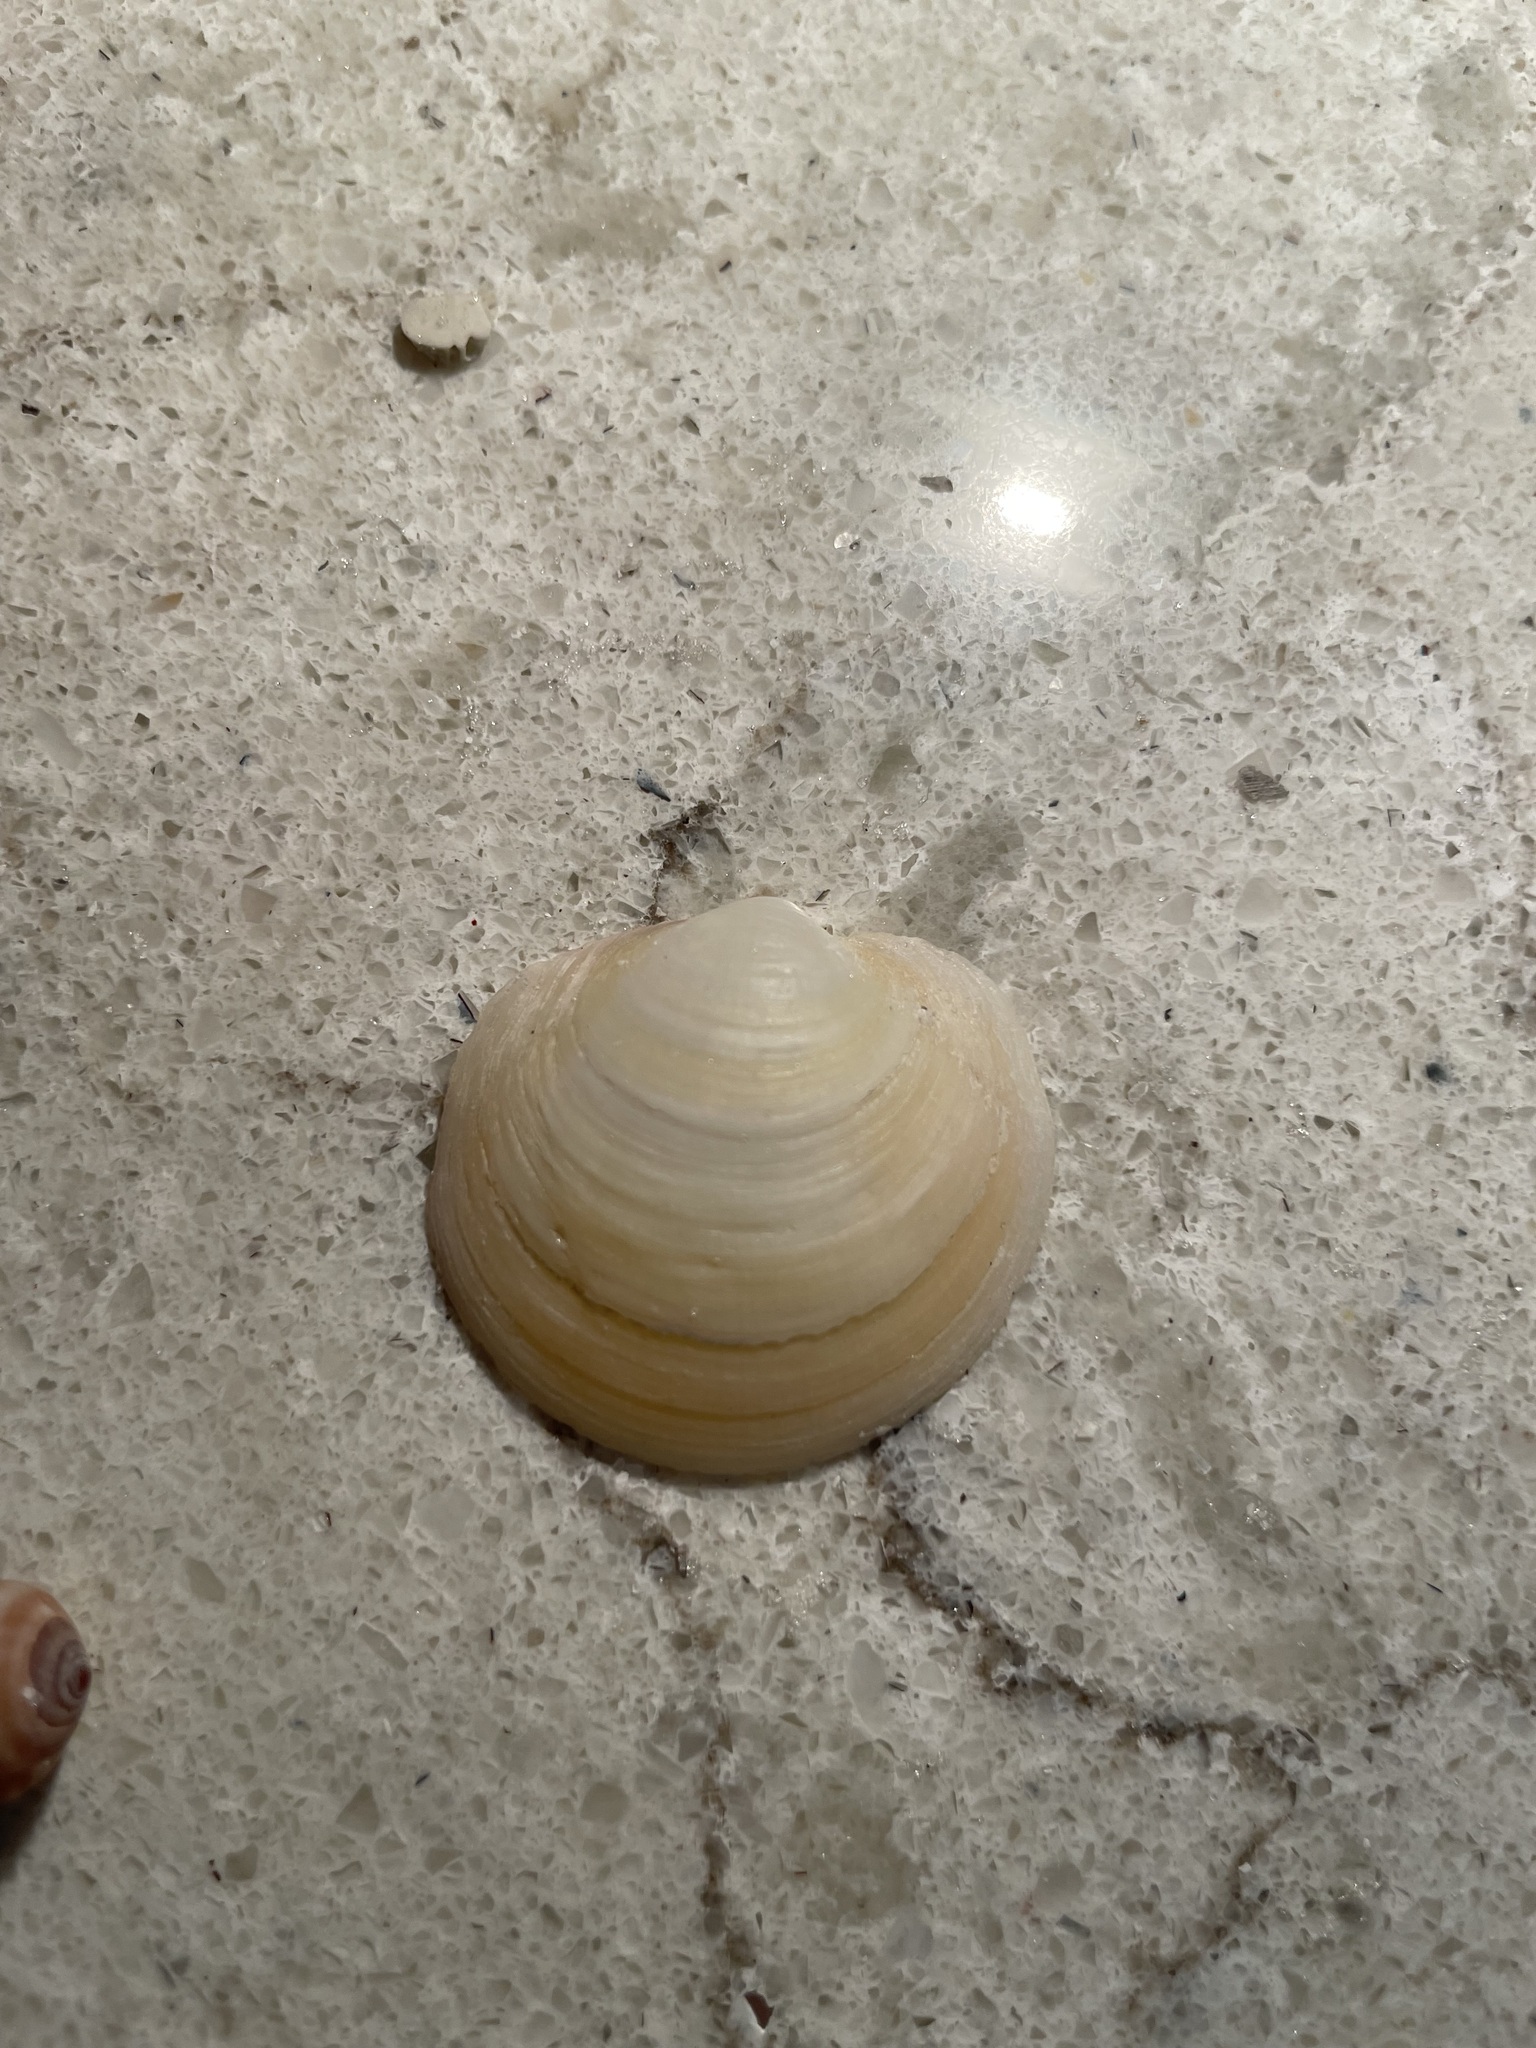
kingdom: Animalia
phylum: Mollusca
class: Bivalvia
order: Lucinida
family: Lucinidae
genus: Anodontia
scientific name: Anodontia alba
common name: Buttercup lucine
